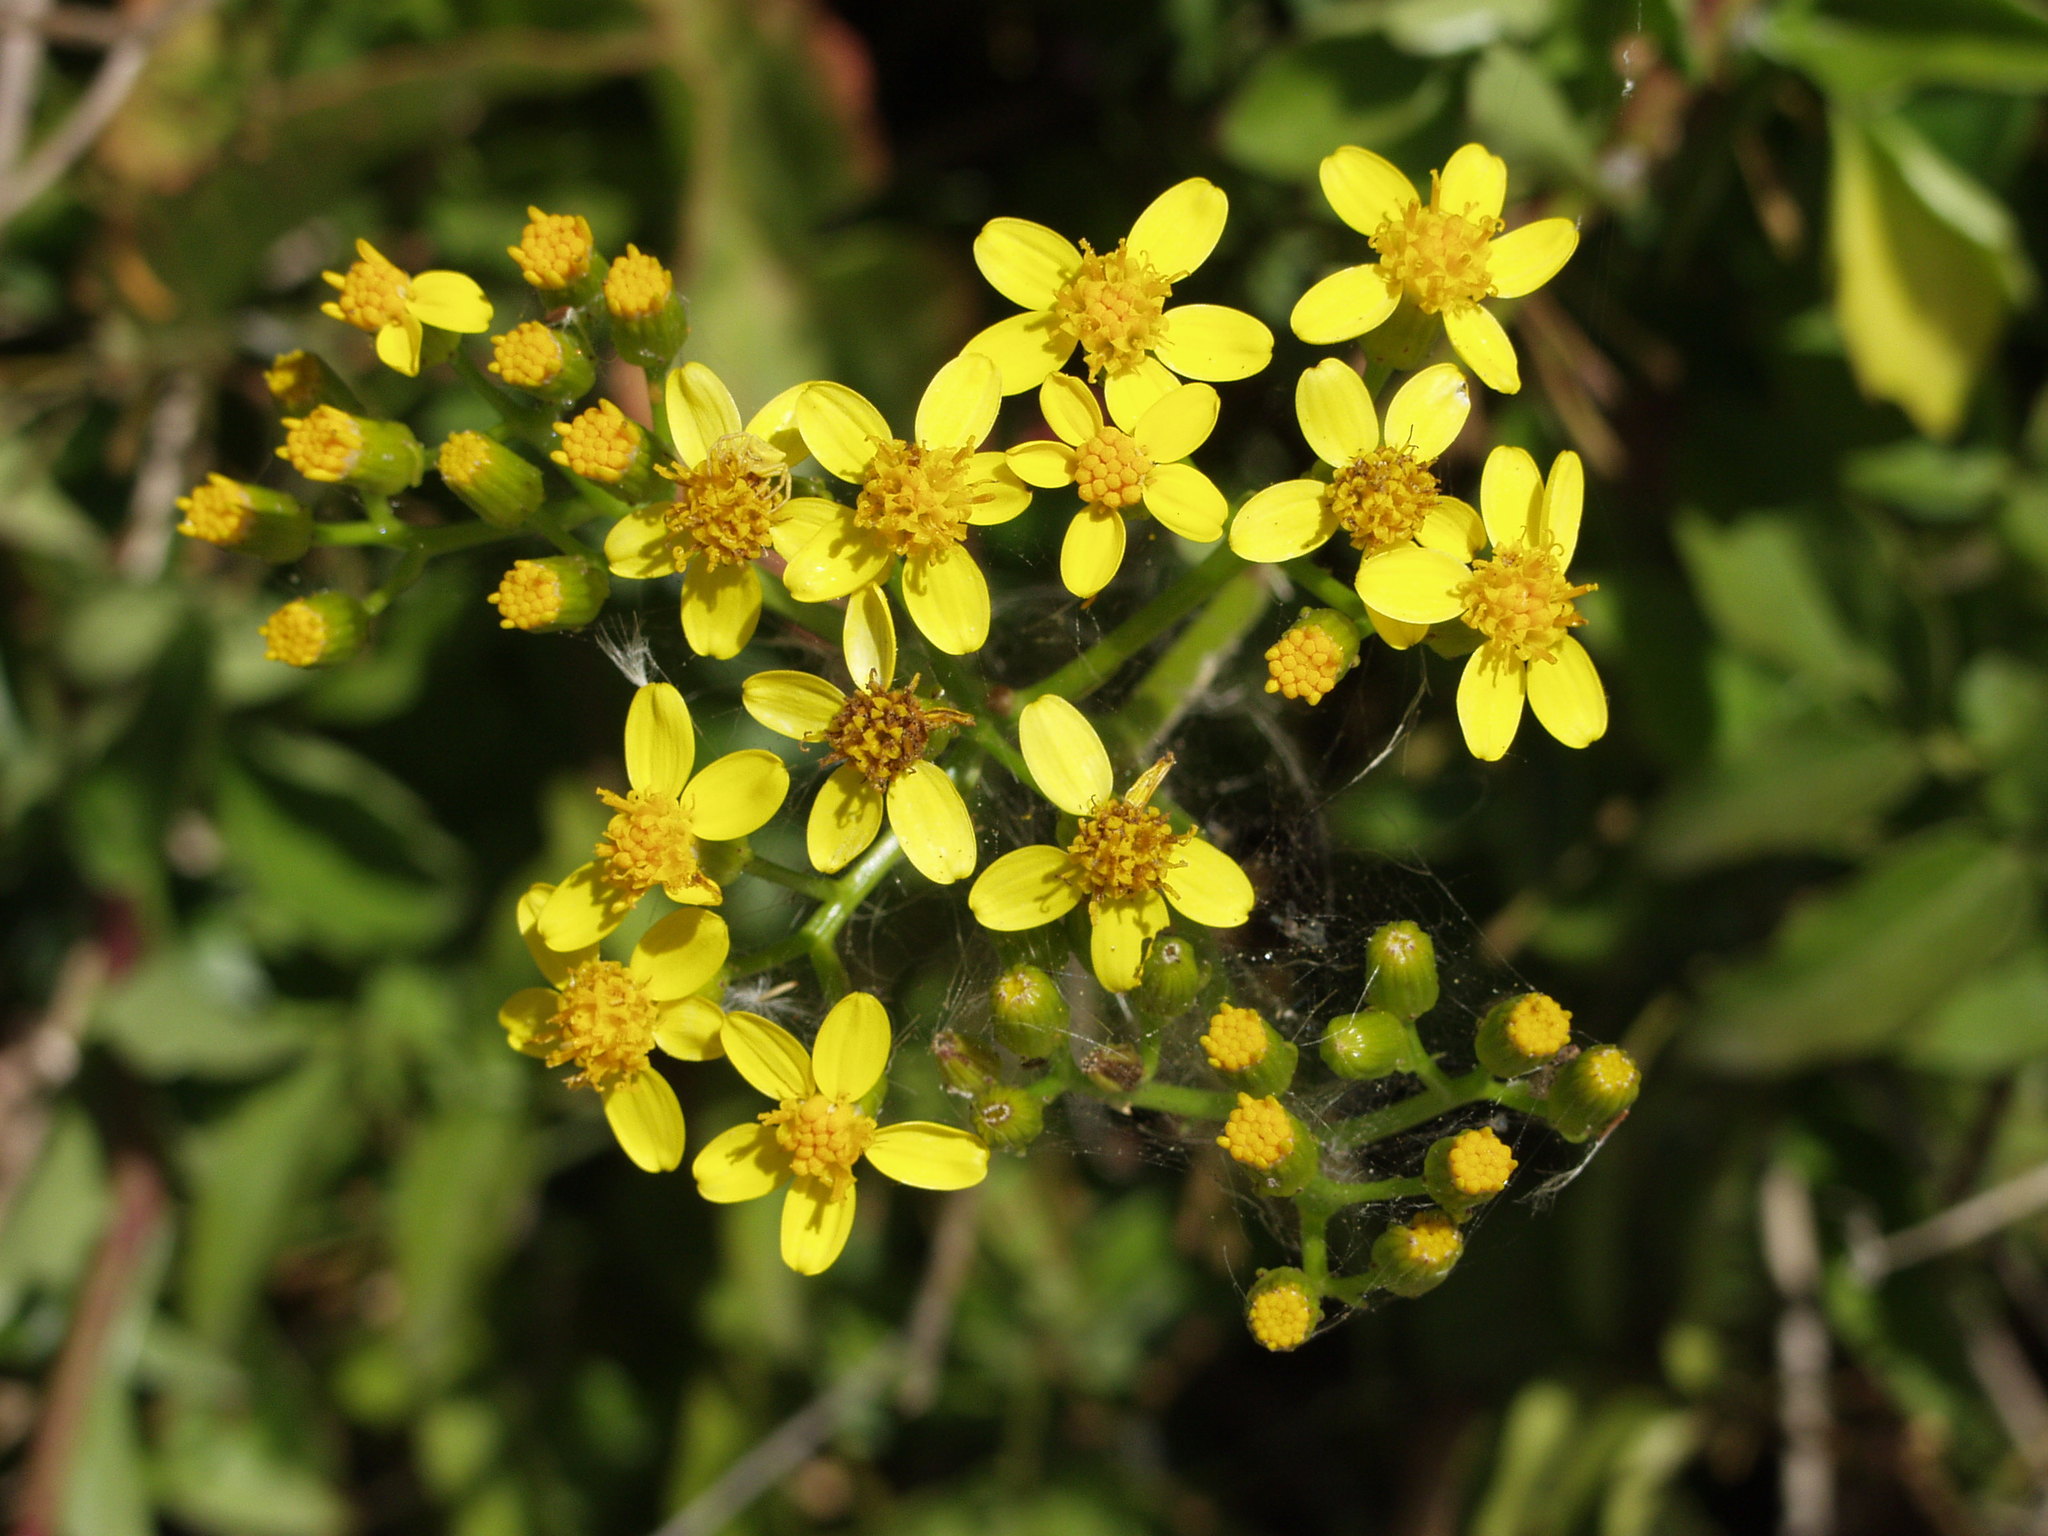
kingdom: Plantae
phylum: Tracheophyta
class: Magnoliopsida
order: Asterales
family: Asteraceae
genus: Senecio
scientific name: Senecio angulatus
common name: Climbing groundsel
